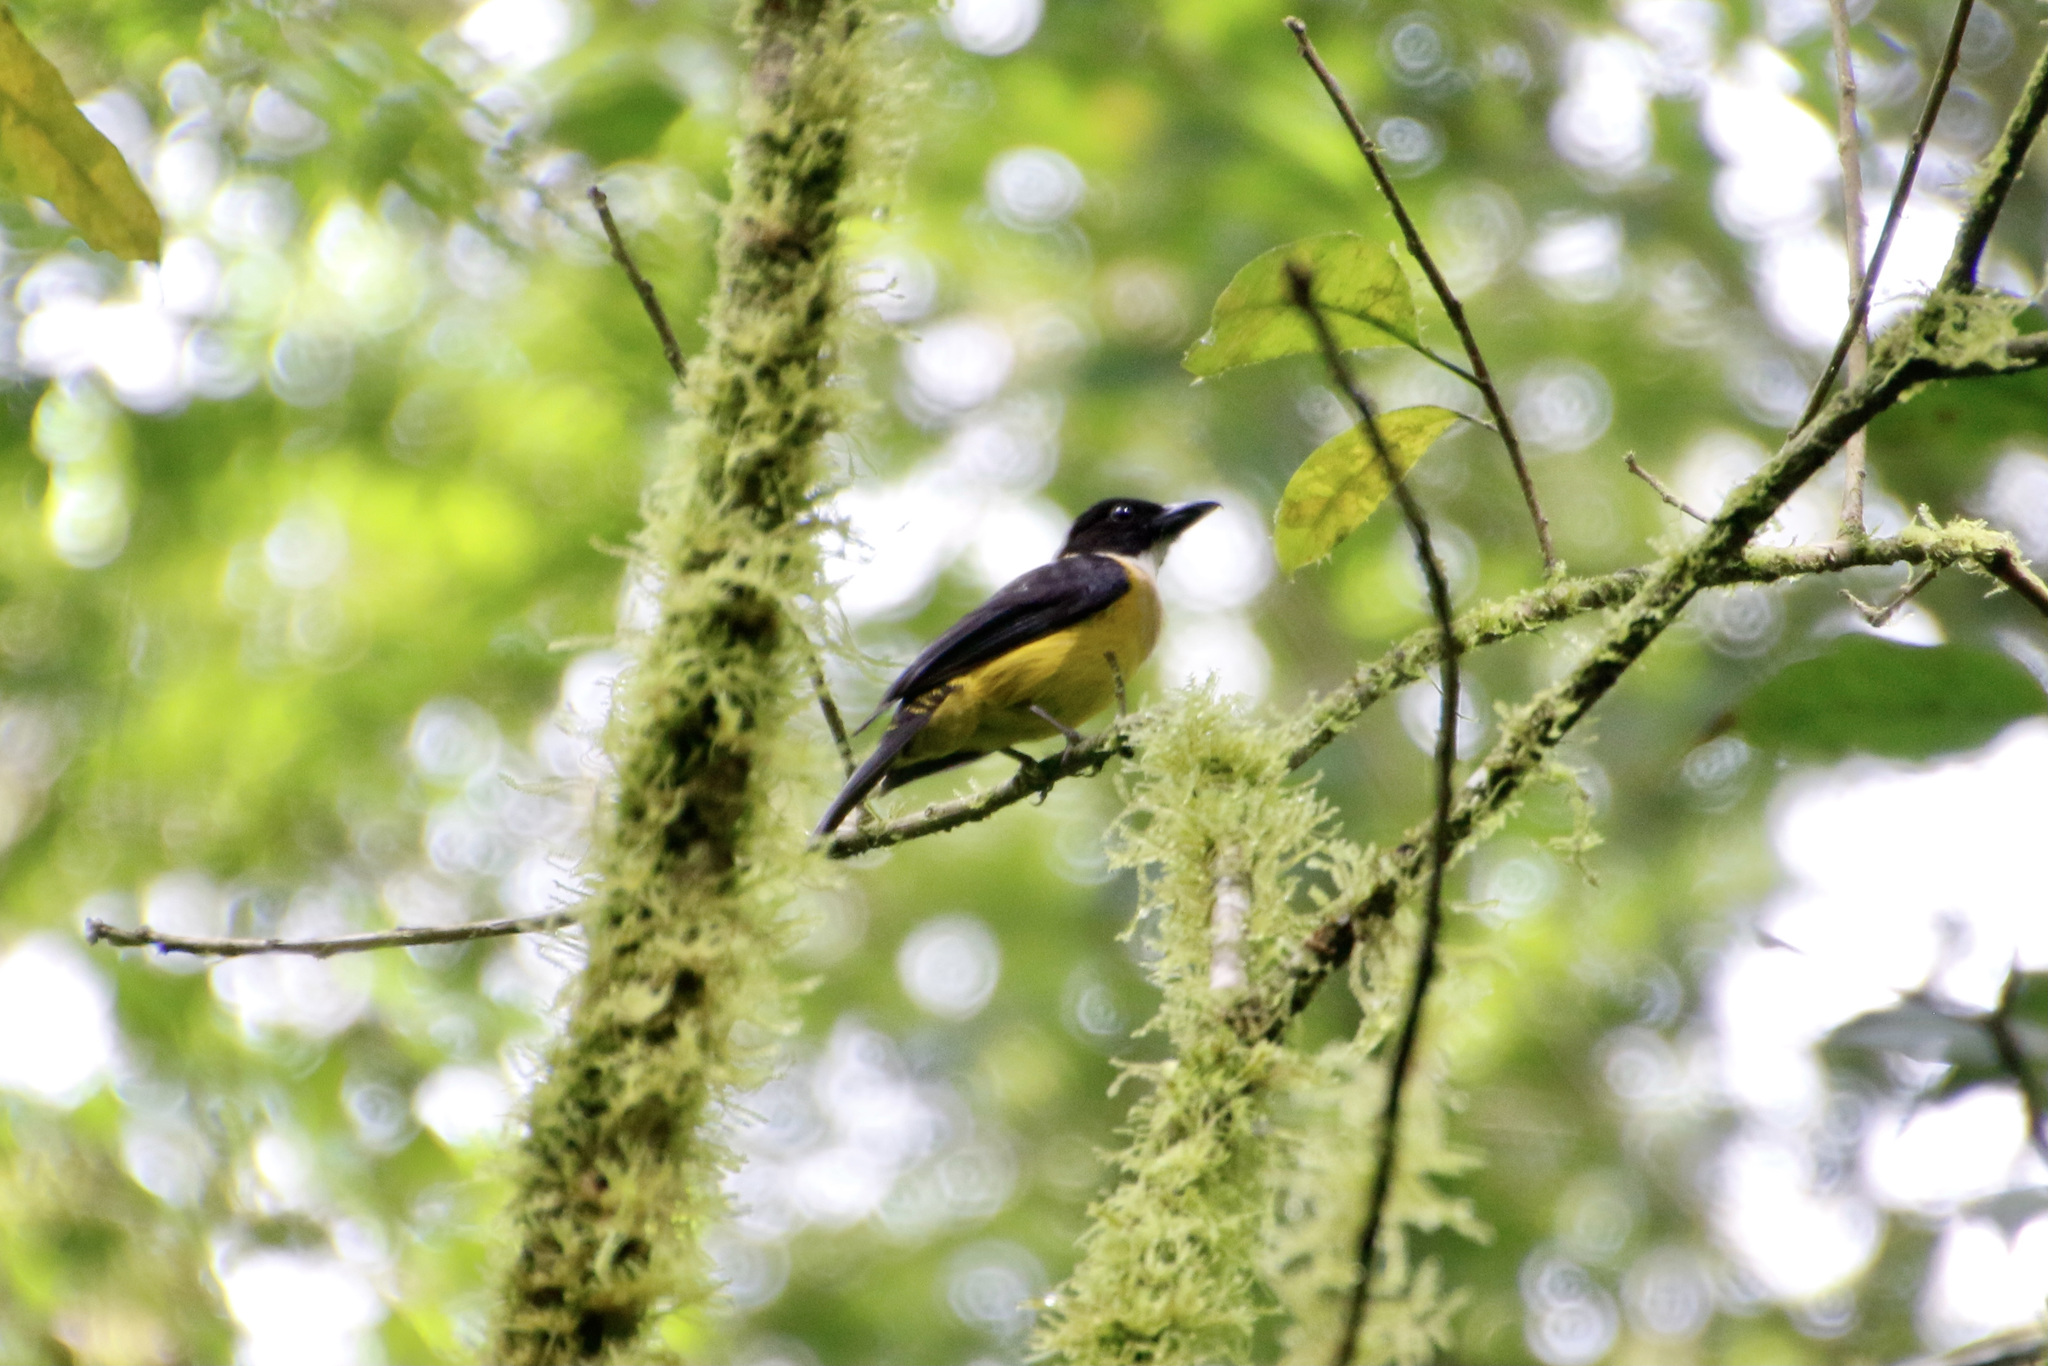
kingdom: Animalia
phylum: Chordata
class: Aves
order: Passeriformes
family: Thraupidae
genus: Lanio
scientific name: Lanio leucothorax
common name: White-throated shrike-tanager
